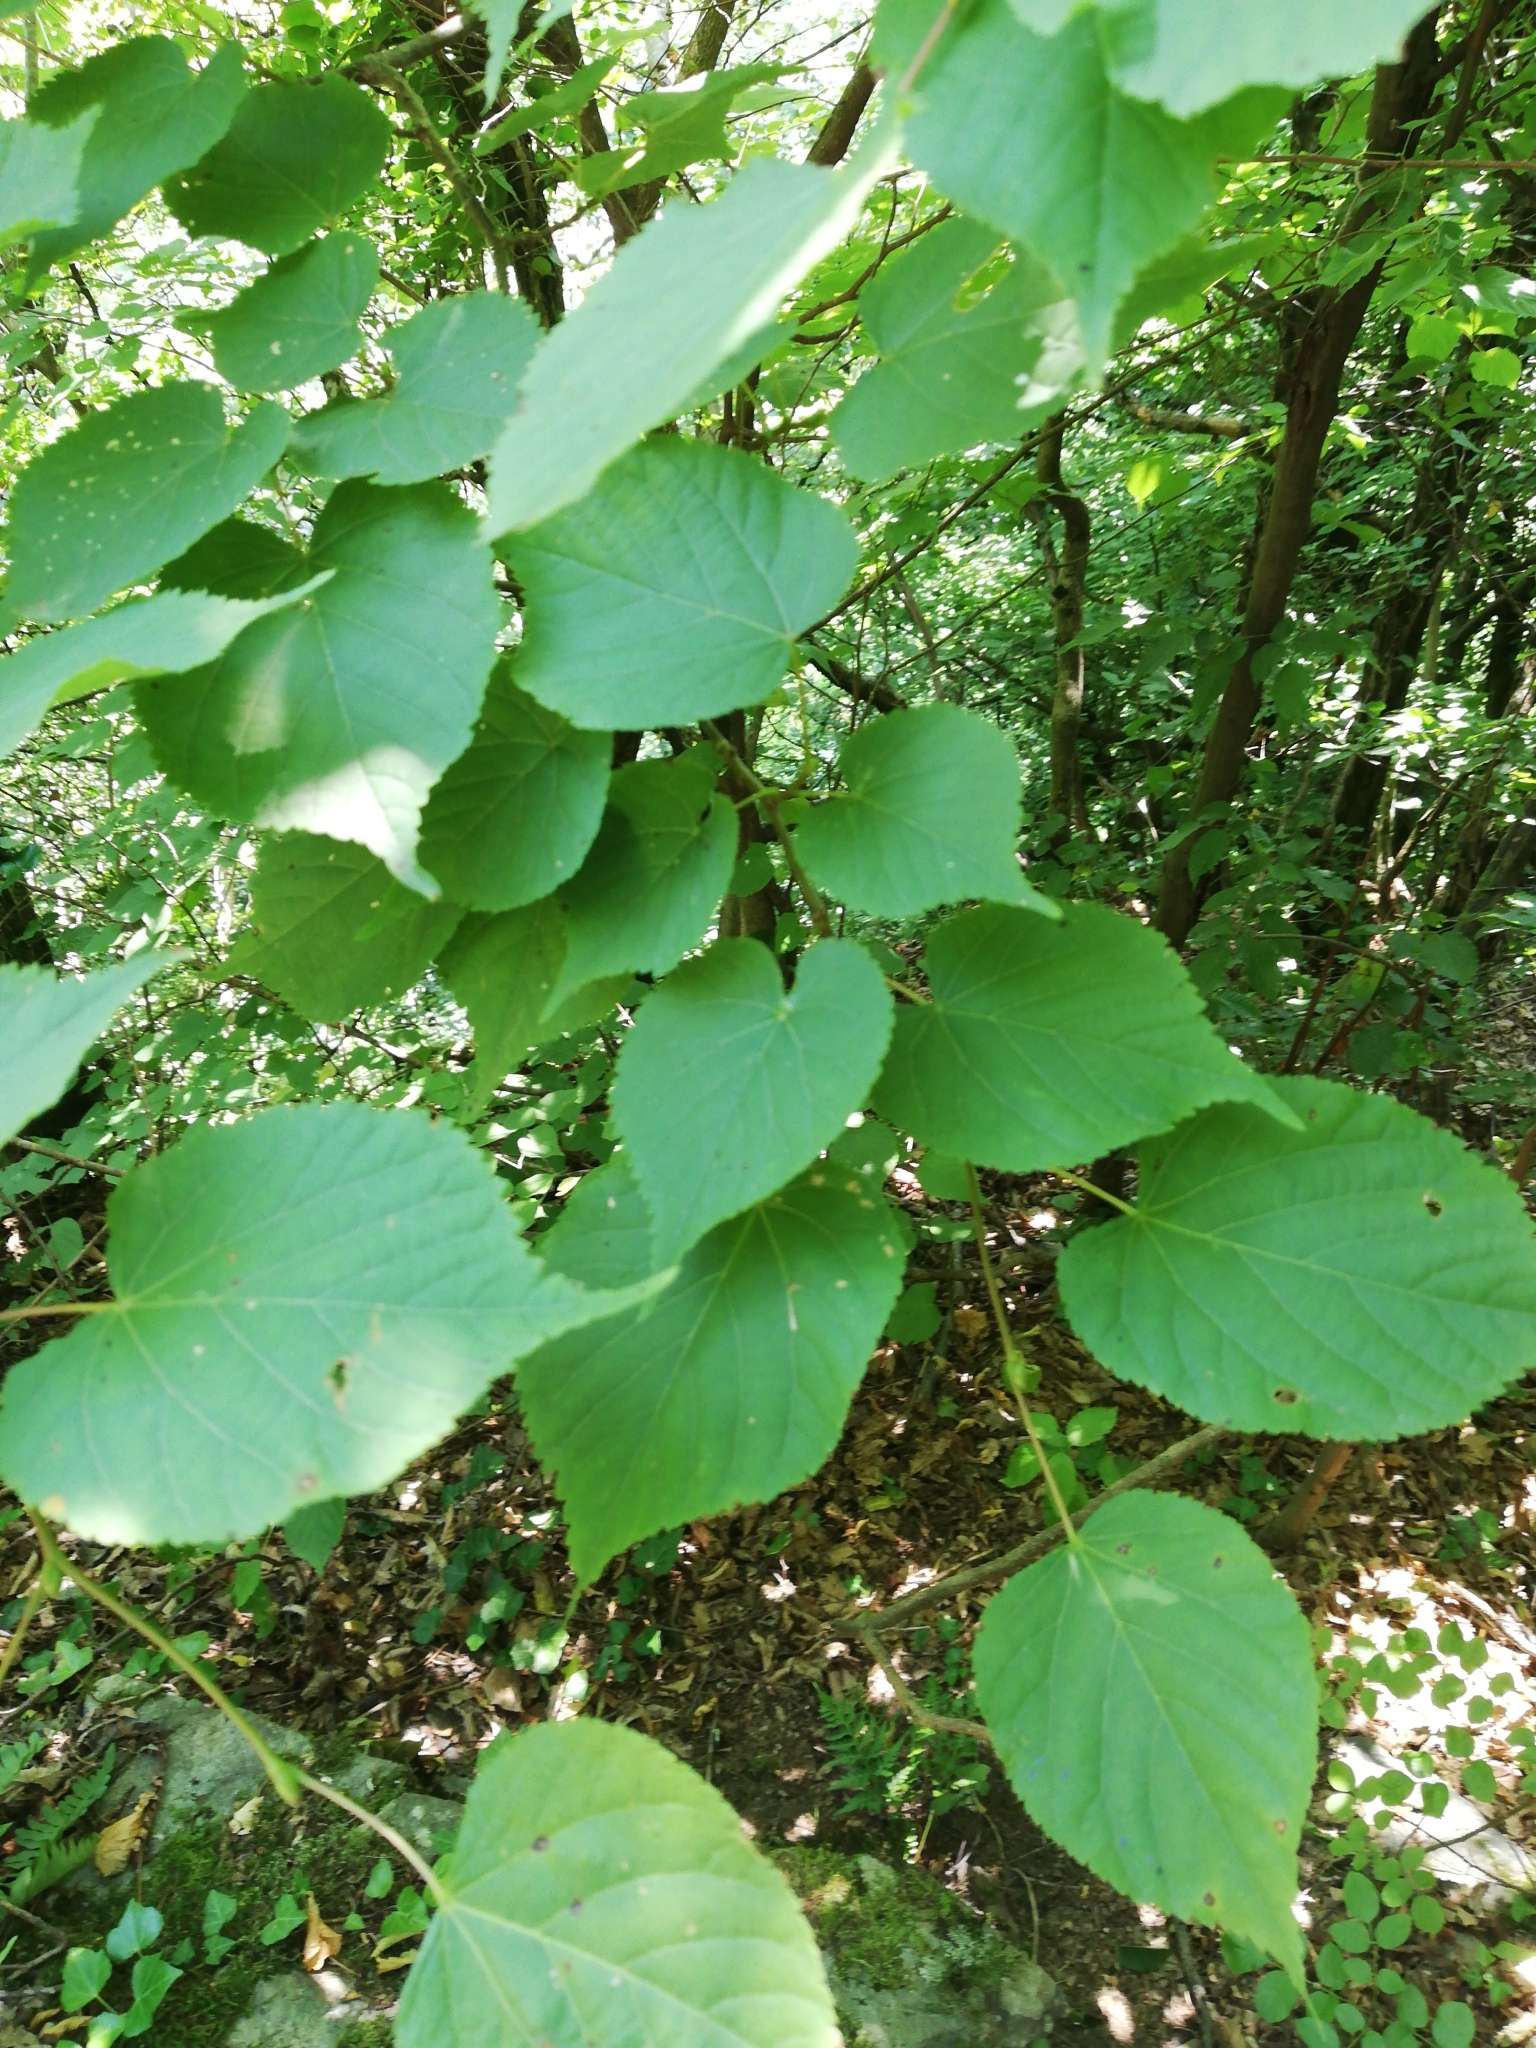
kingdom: Plantae
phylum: Tracheophyta
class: Magnoliopsida
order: Malvales
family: Malvaceae
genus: Tilia
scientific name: Tilia cordata
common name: Small-leaved lime
